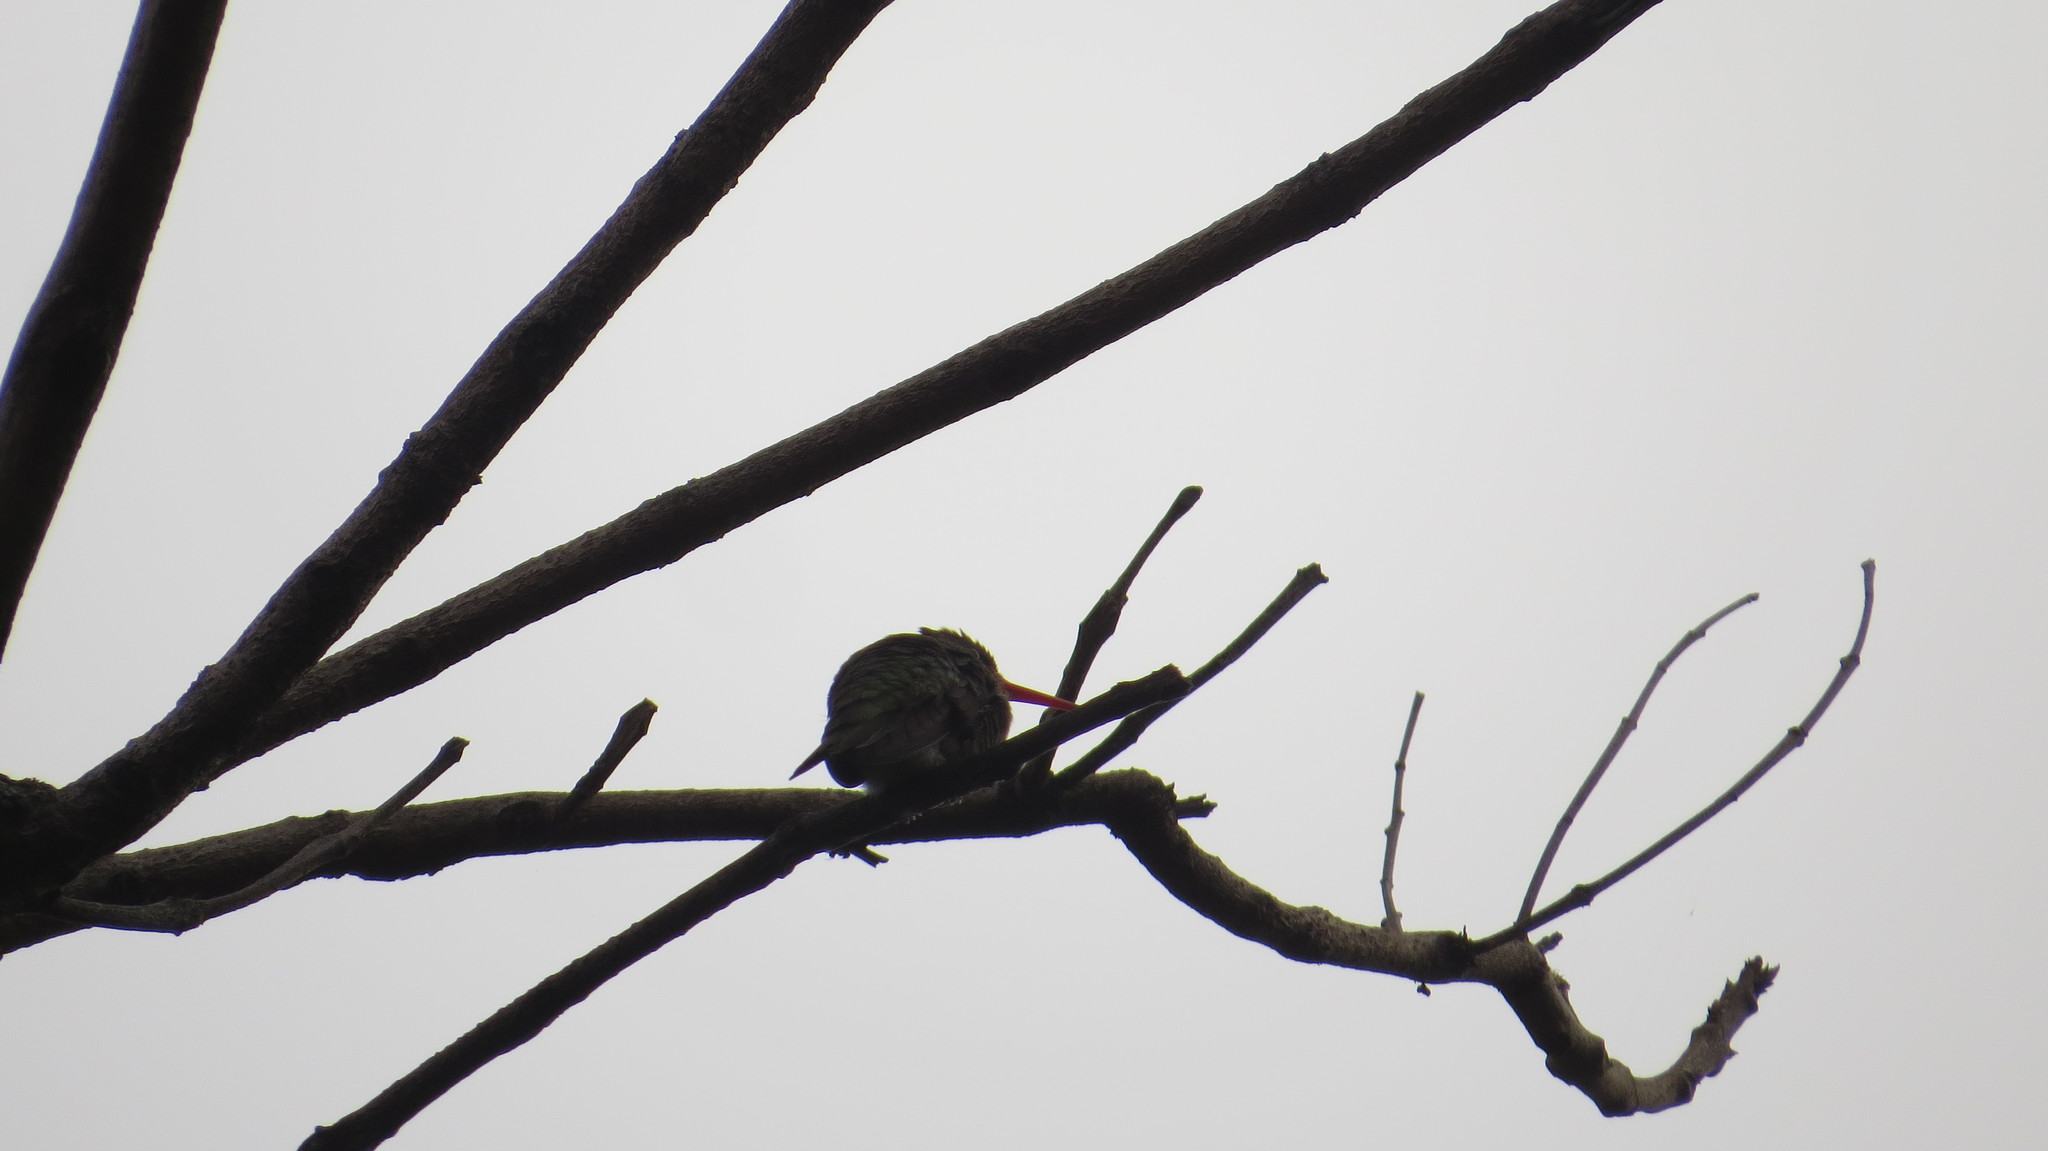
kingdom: Animalia
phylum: Chordata
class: Aves
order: Apodiformes
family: Trochilidae
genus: Chlorostilbon
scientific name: Chlorostilbon lucidus
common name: Glittering-bellied emerald
